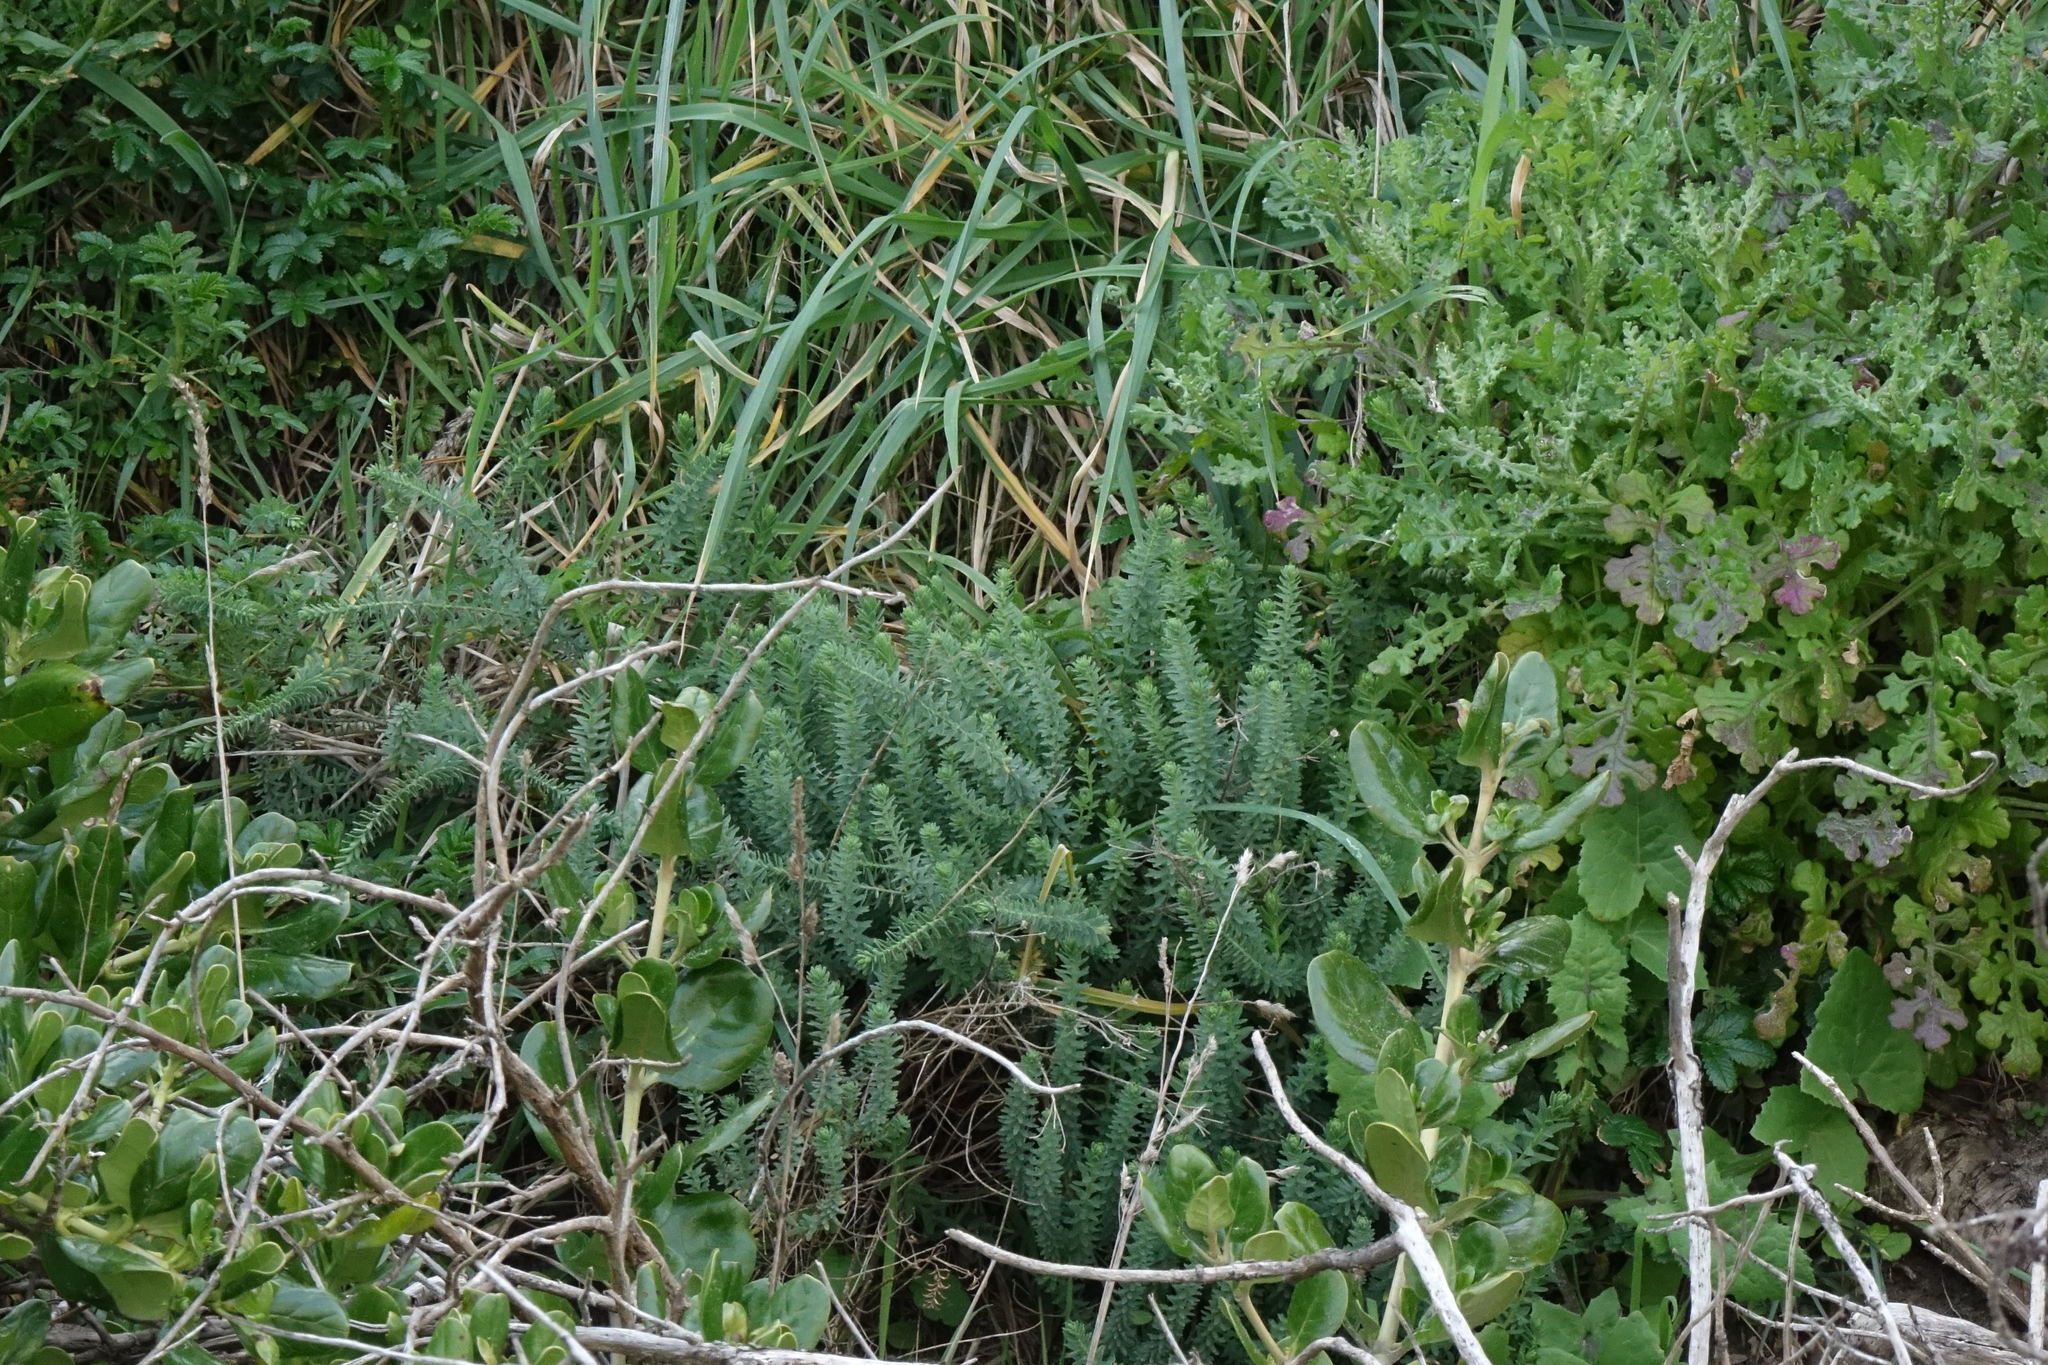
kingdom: Plantae
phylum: Tracheophyta
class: Magnoliopsida
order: Malpighiales
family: Linaceae
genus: Linum
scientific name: Linum monogynum
